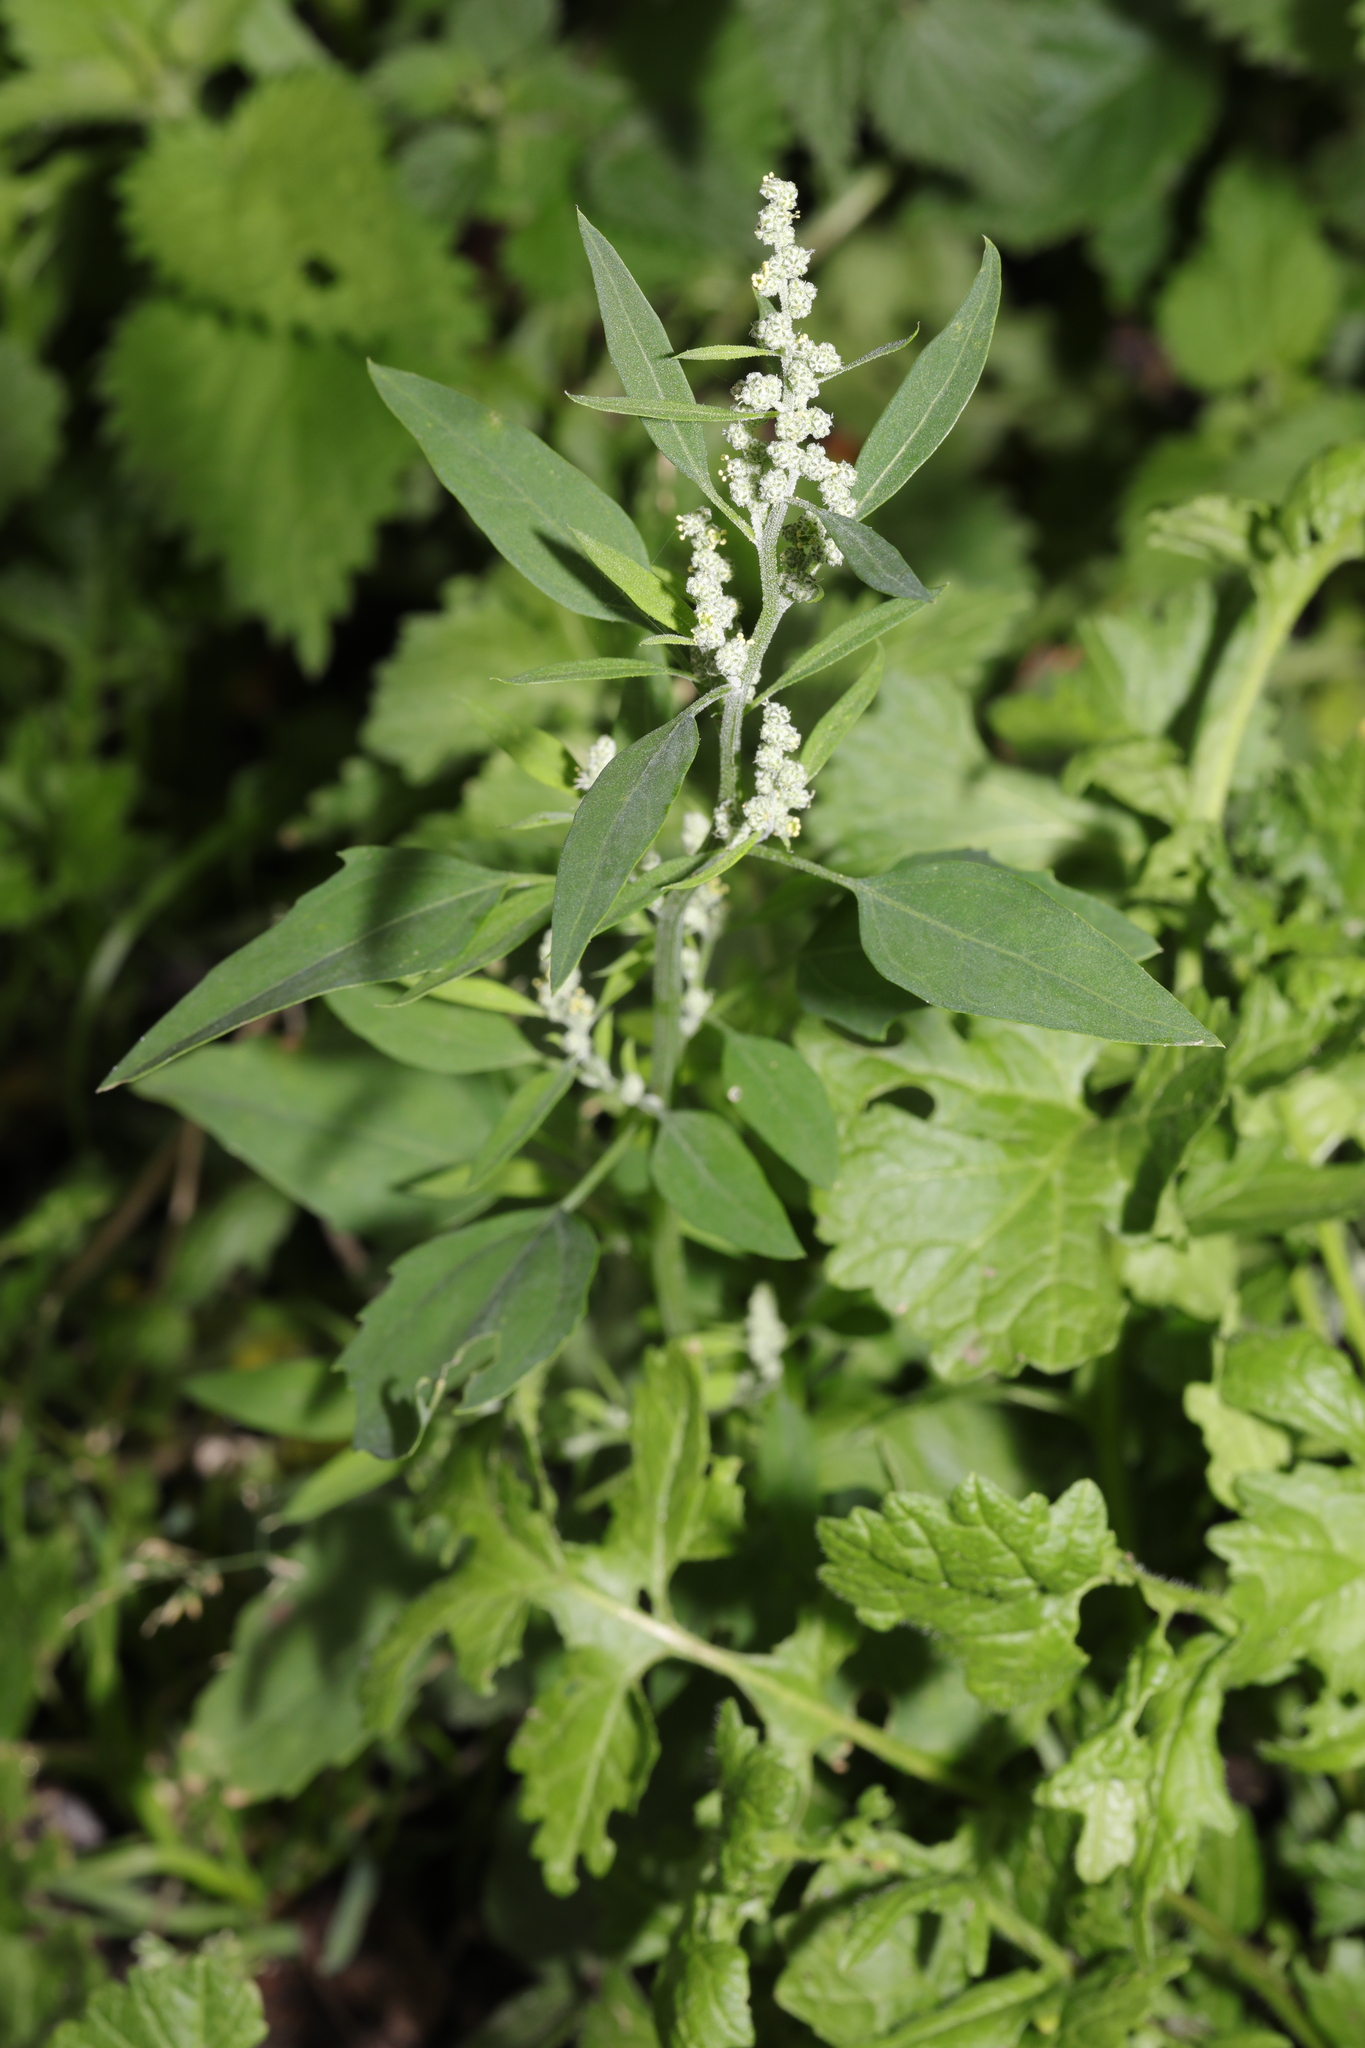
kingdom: Plantae
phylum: Tracheophyta
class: Magnoliopsida
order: Caryophyllales
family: Amaranthaceae
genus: Chenopodium
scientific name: Chenopodium album
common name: Fat-hen
